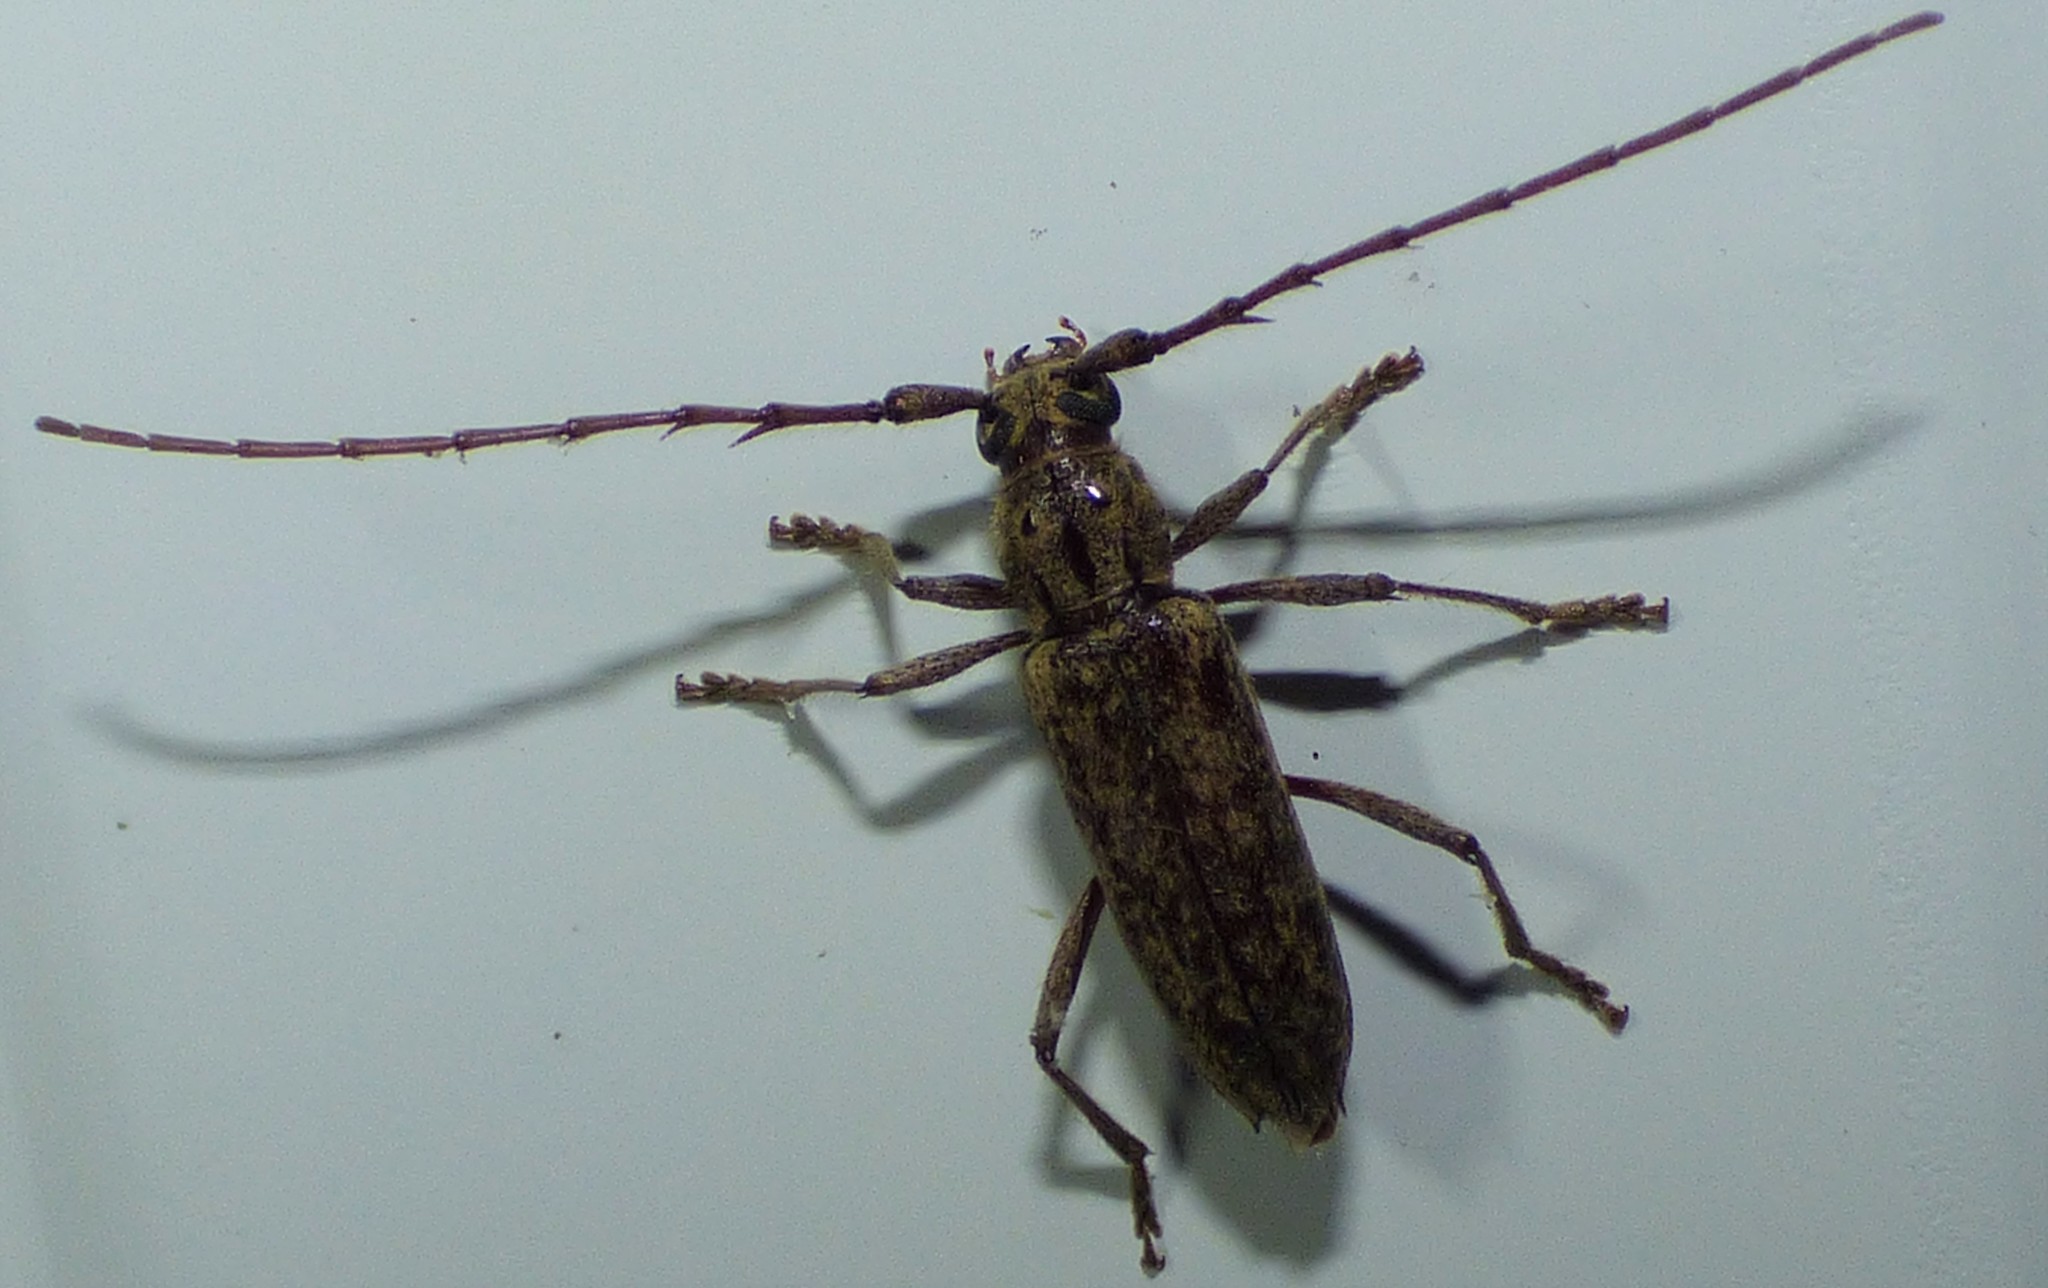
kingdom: Animalia
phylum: Arthropoda
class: Insecta
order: Coleoptera
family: Cerambycidae
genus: Elaphidion
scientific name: Elaphidion mucronatum
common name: Spined oak borer
